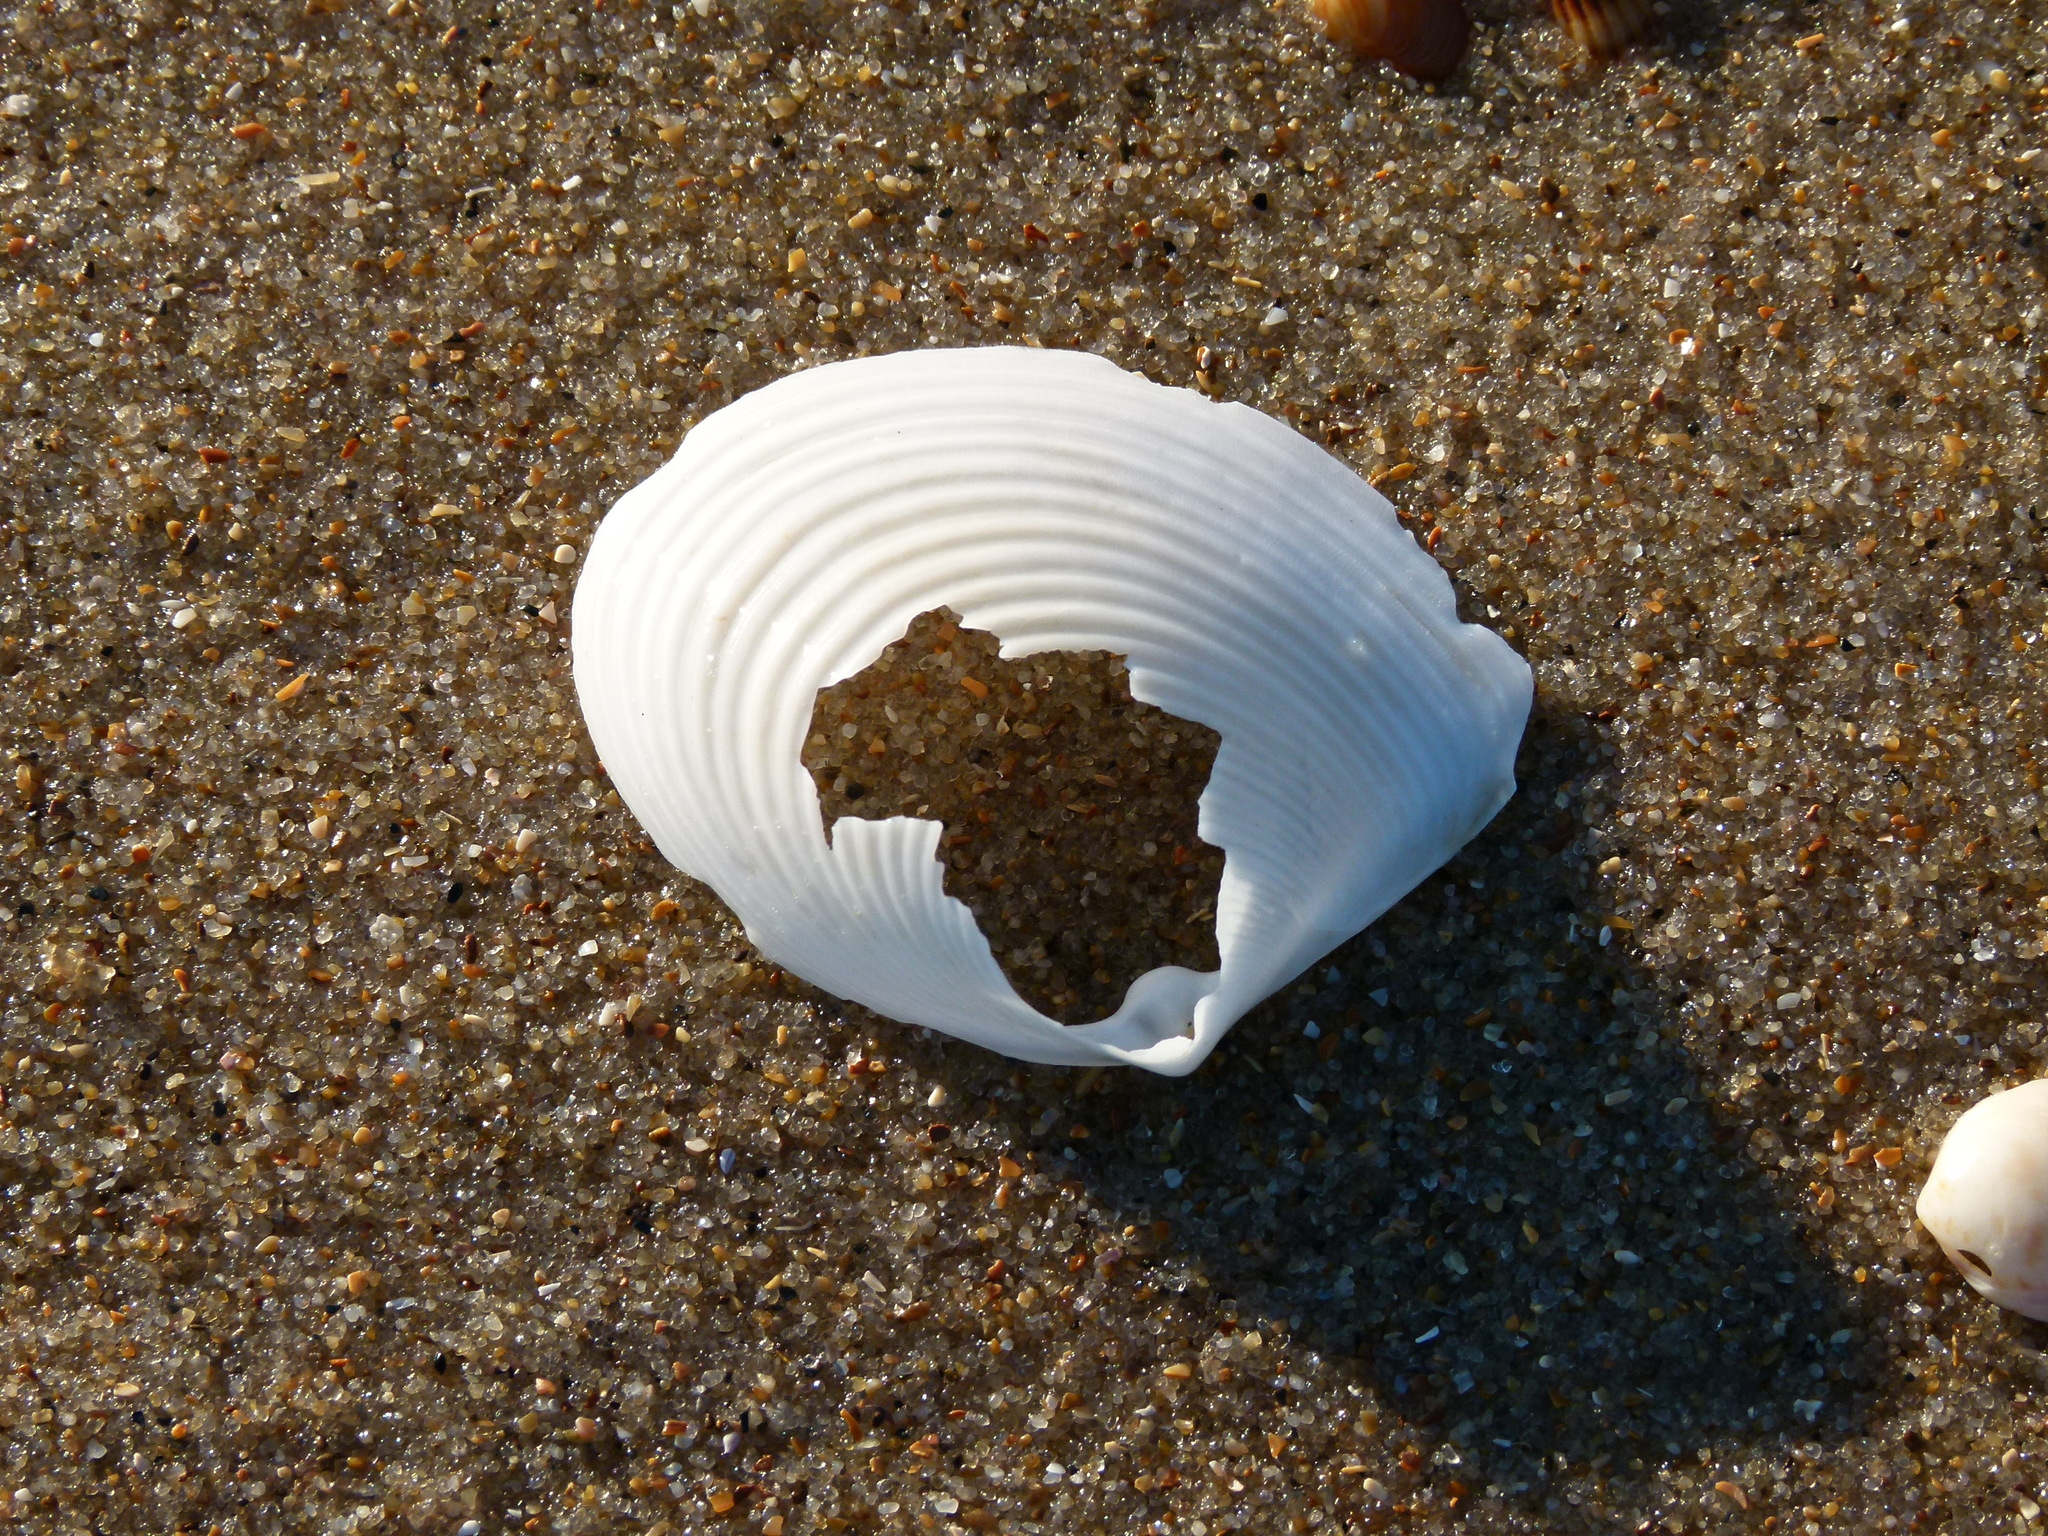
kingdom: Animalia
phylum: Mollusca
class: Bivalvia
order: Venerida
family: Anatinellidae
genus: Raeta
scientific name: Raeta plicatella
